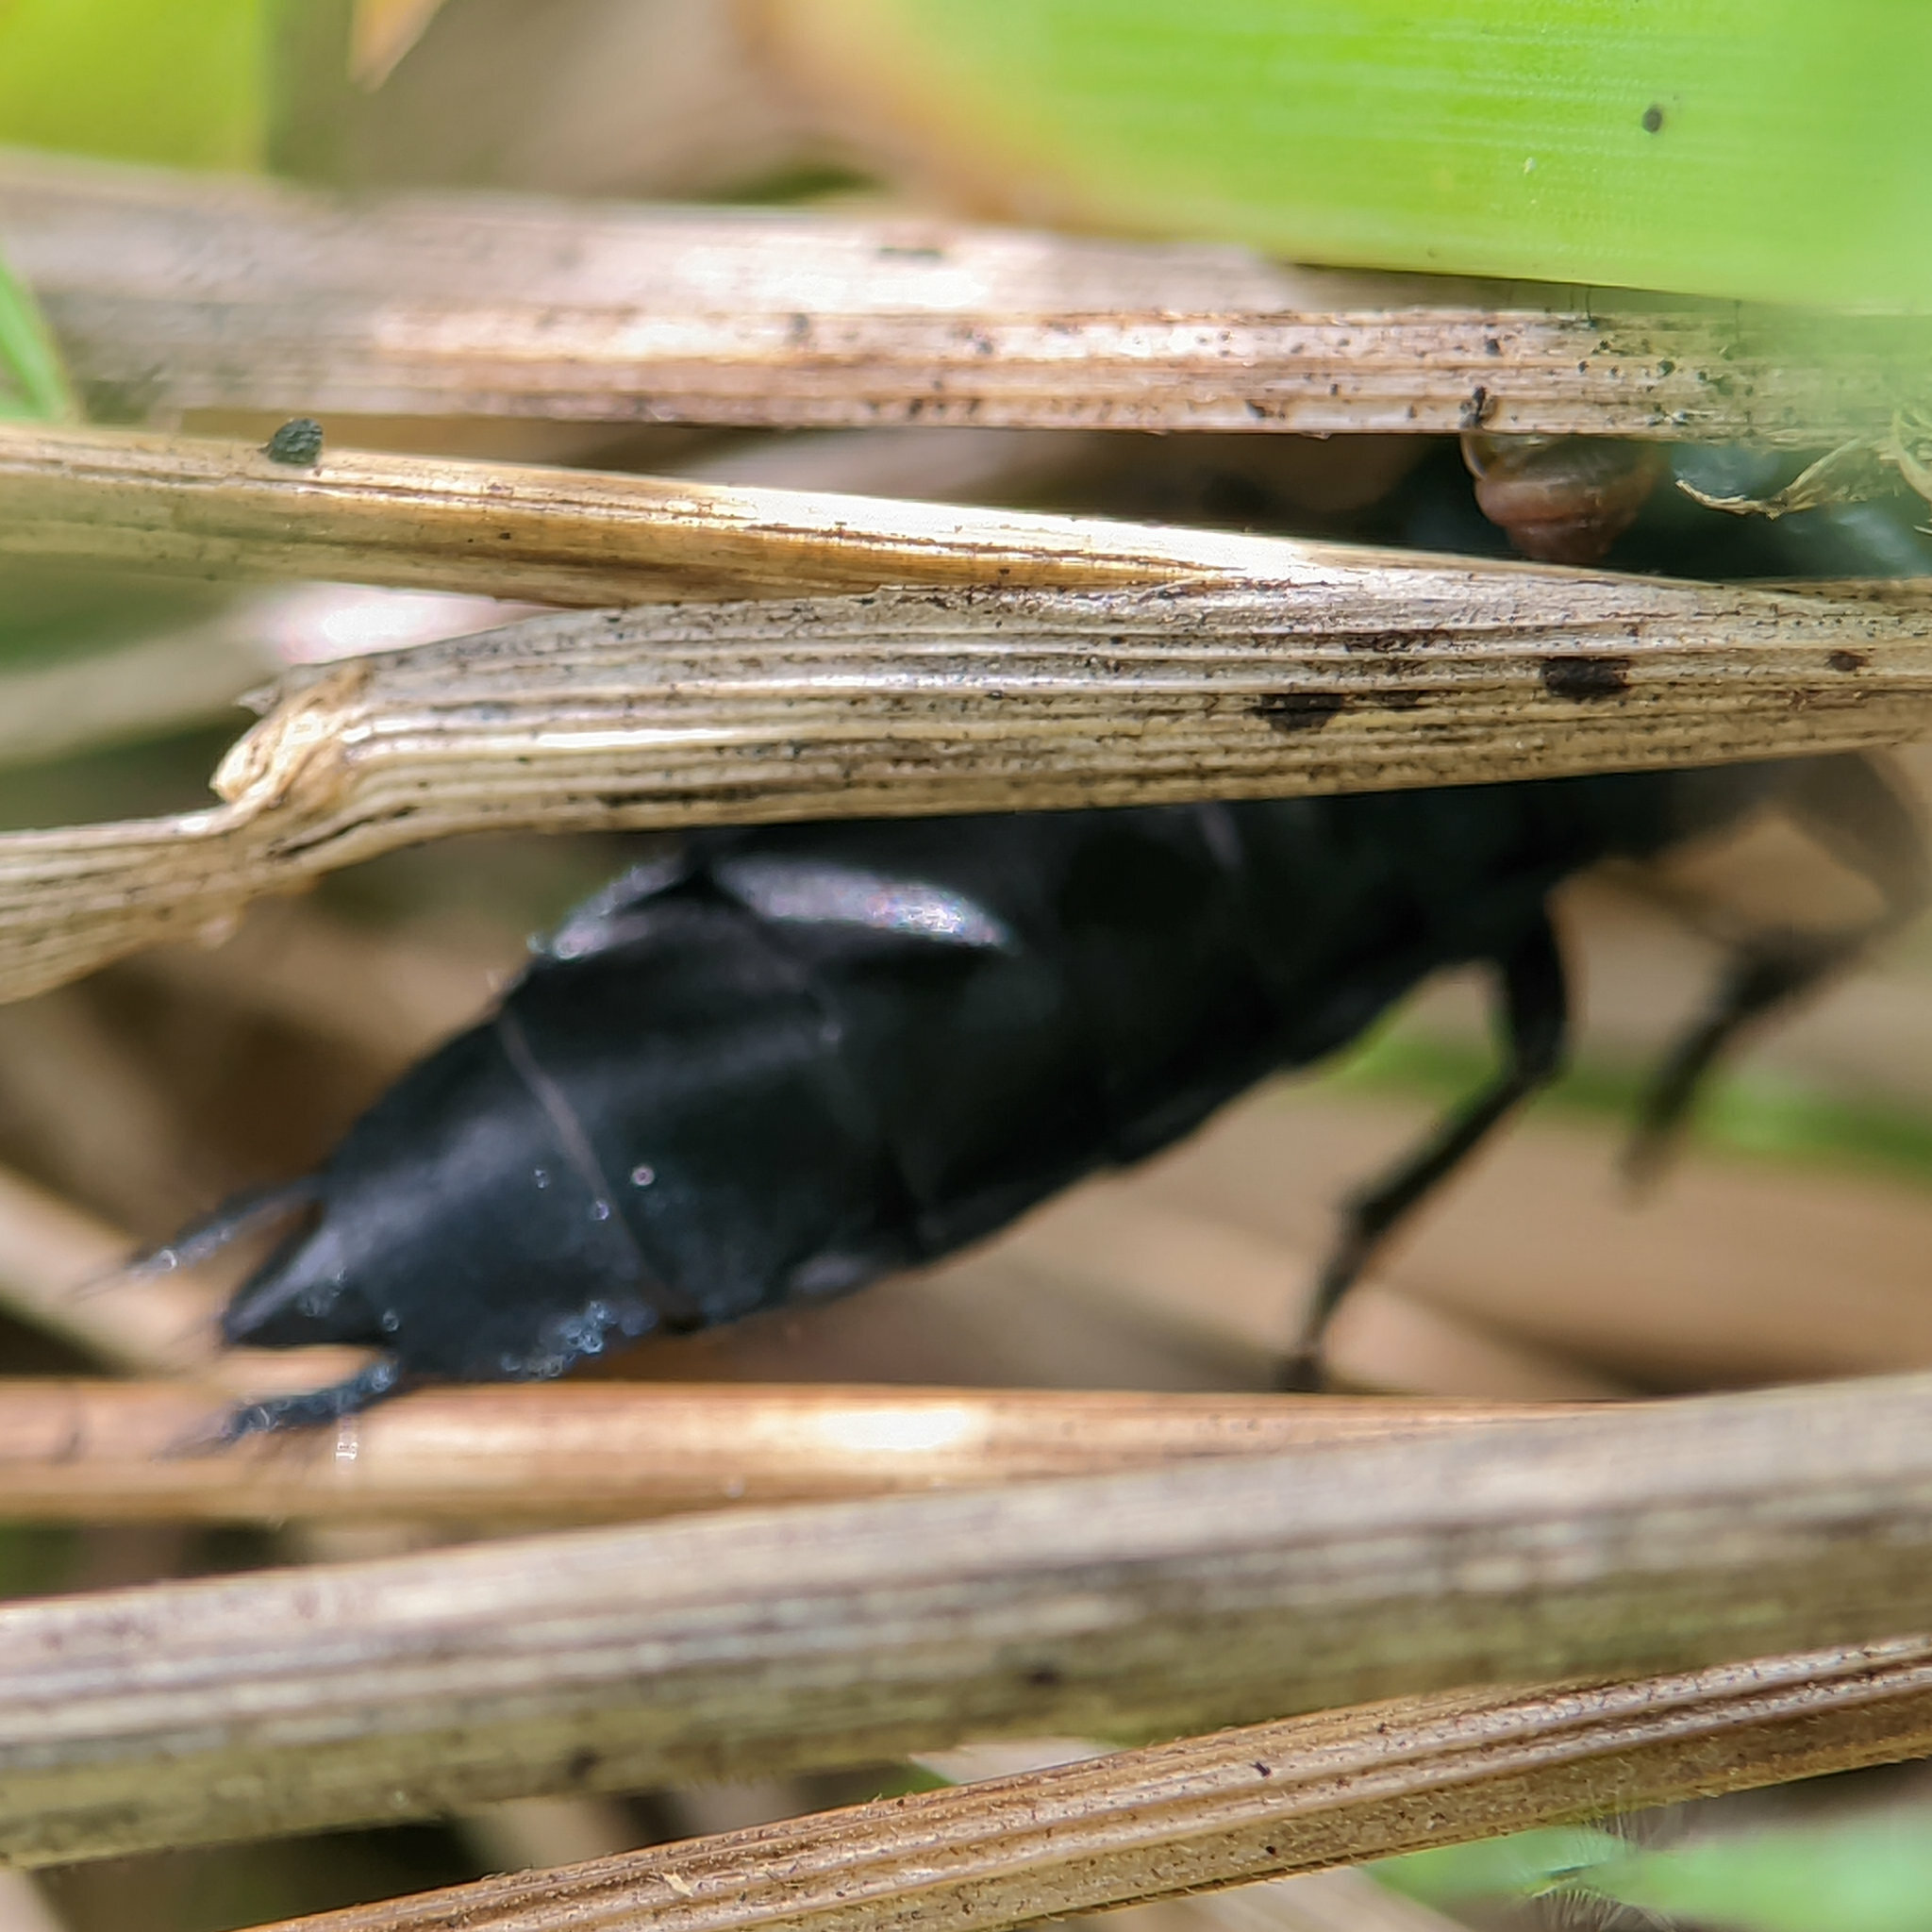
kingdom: Animalia
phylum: Arthropoda
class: Insecta
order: Coleoptera
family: Staphylinidae
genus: Ocypus
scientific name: Ocypus ophthalmicus
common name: Blue rove-beetle
